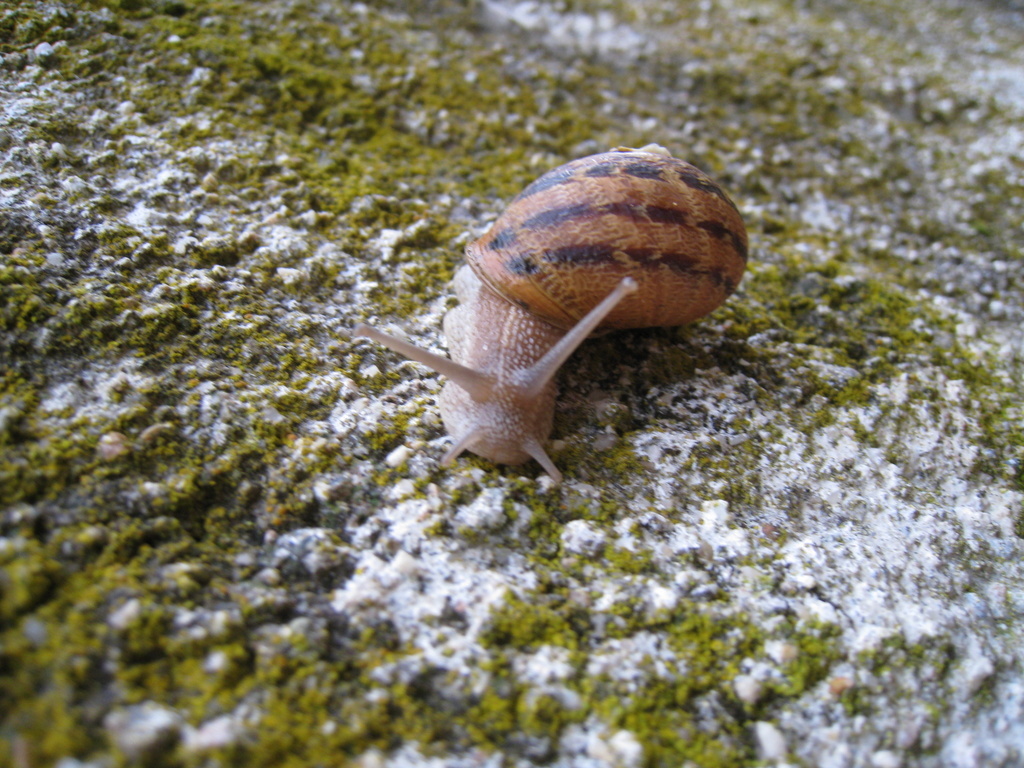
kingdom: Animalia
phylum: Mollusca
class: Gastropoda
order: Stylommatophora
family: Helicidae
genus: Cornu
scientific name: Cornu aspersum
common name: Brown garden snail
